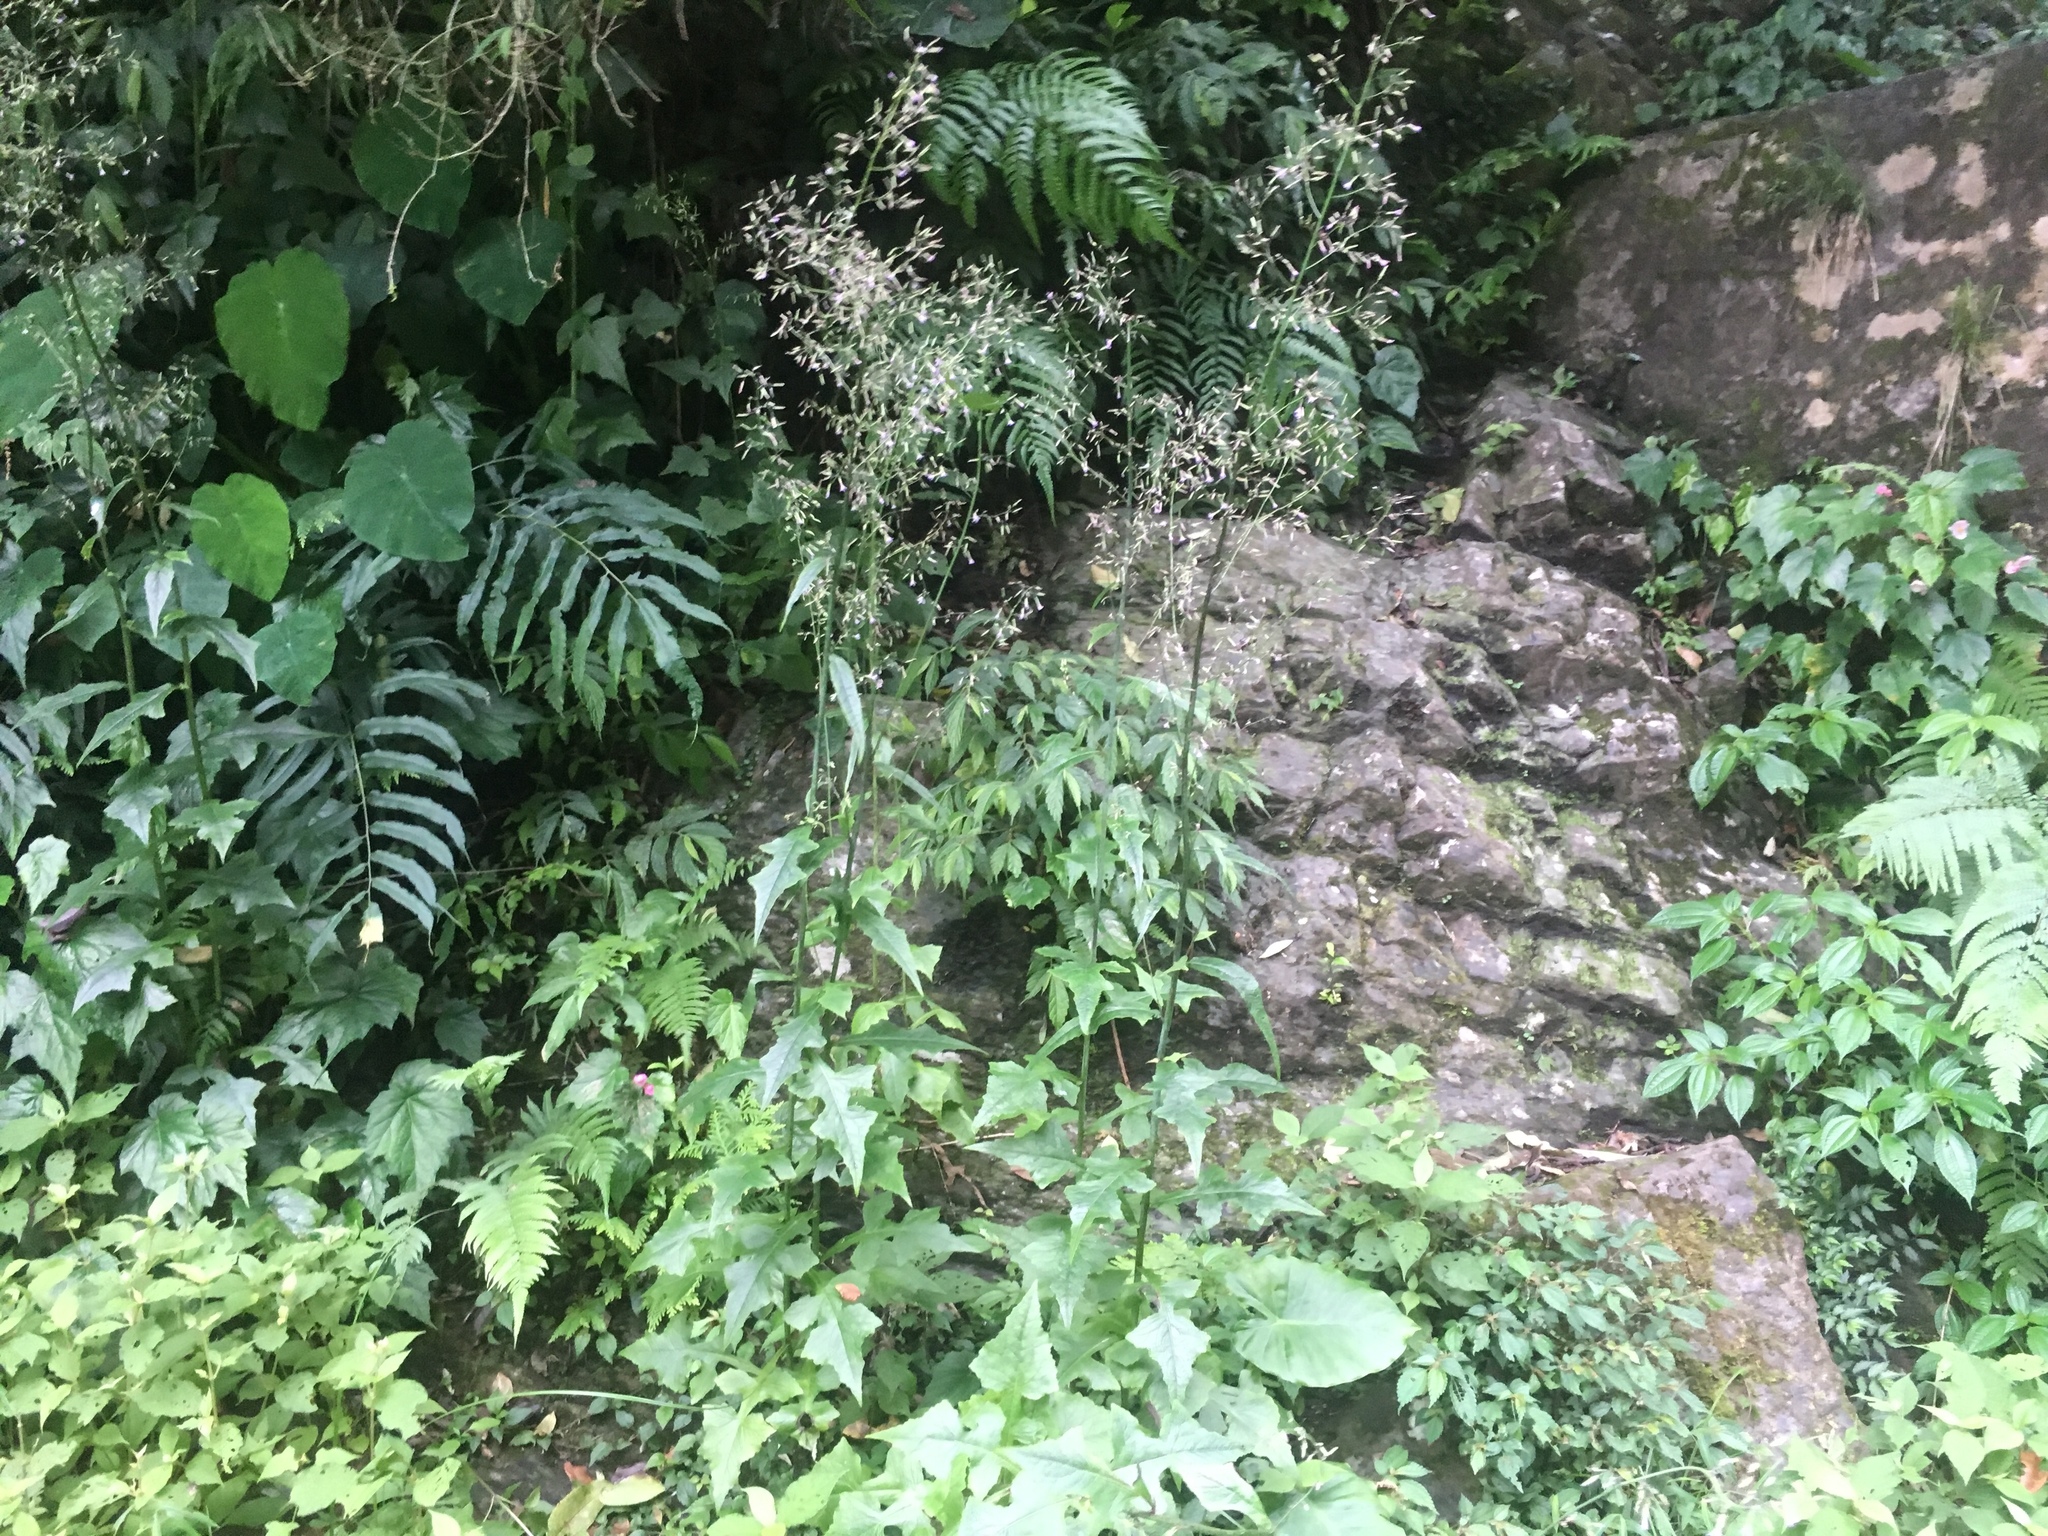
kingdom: Plantae
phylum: Tracheophyta
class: Magnoliopsida
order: Asterales
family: Asteraceae
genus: Paraprenanthes
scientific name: Paraprenanthes sororia
